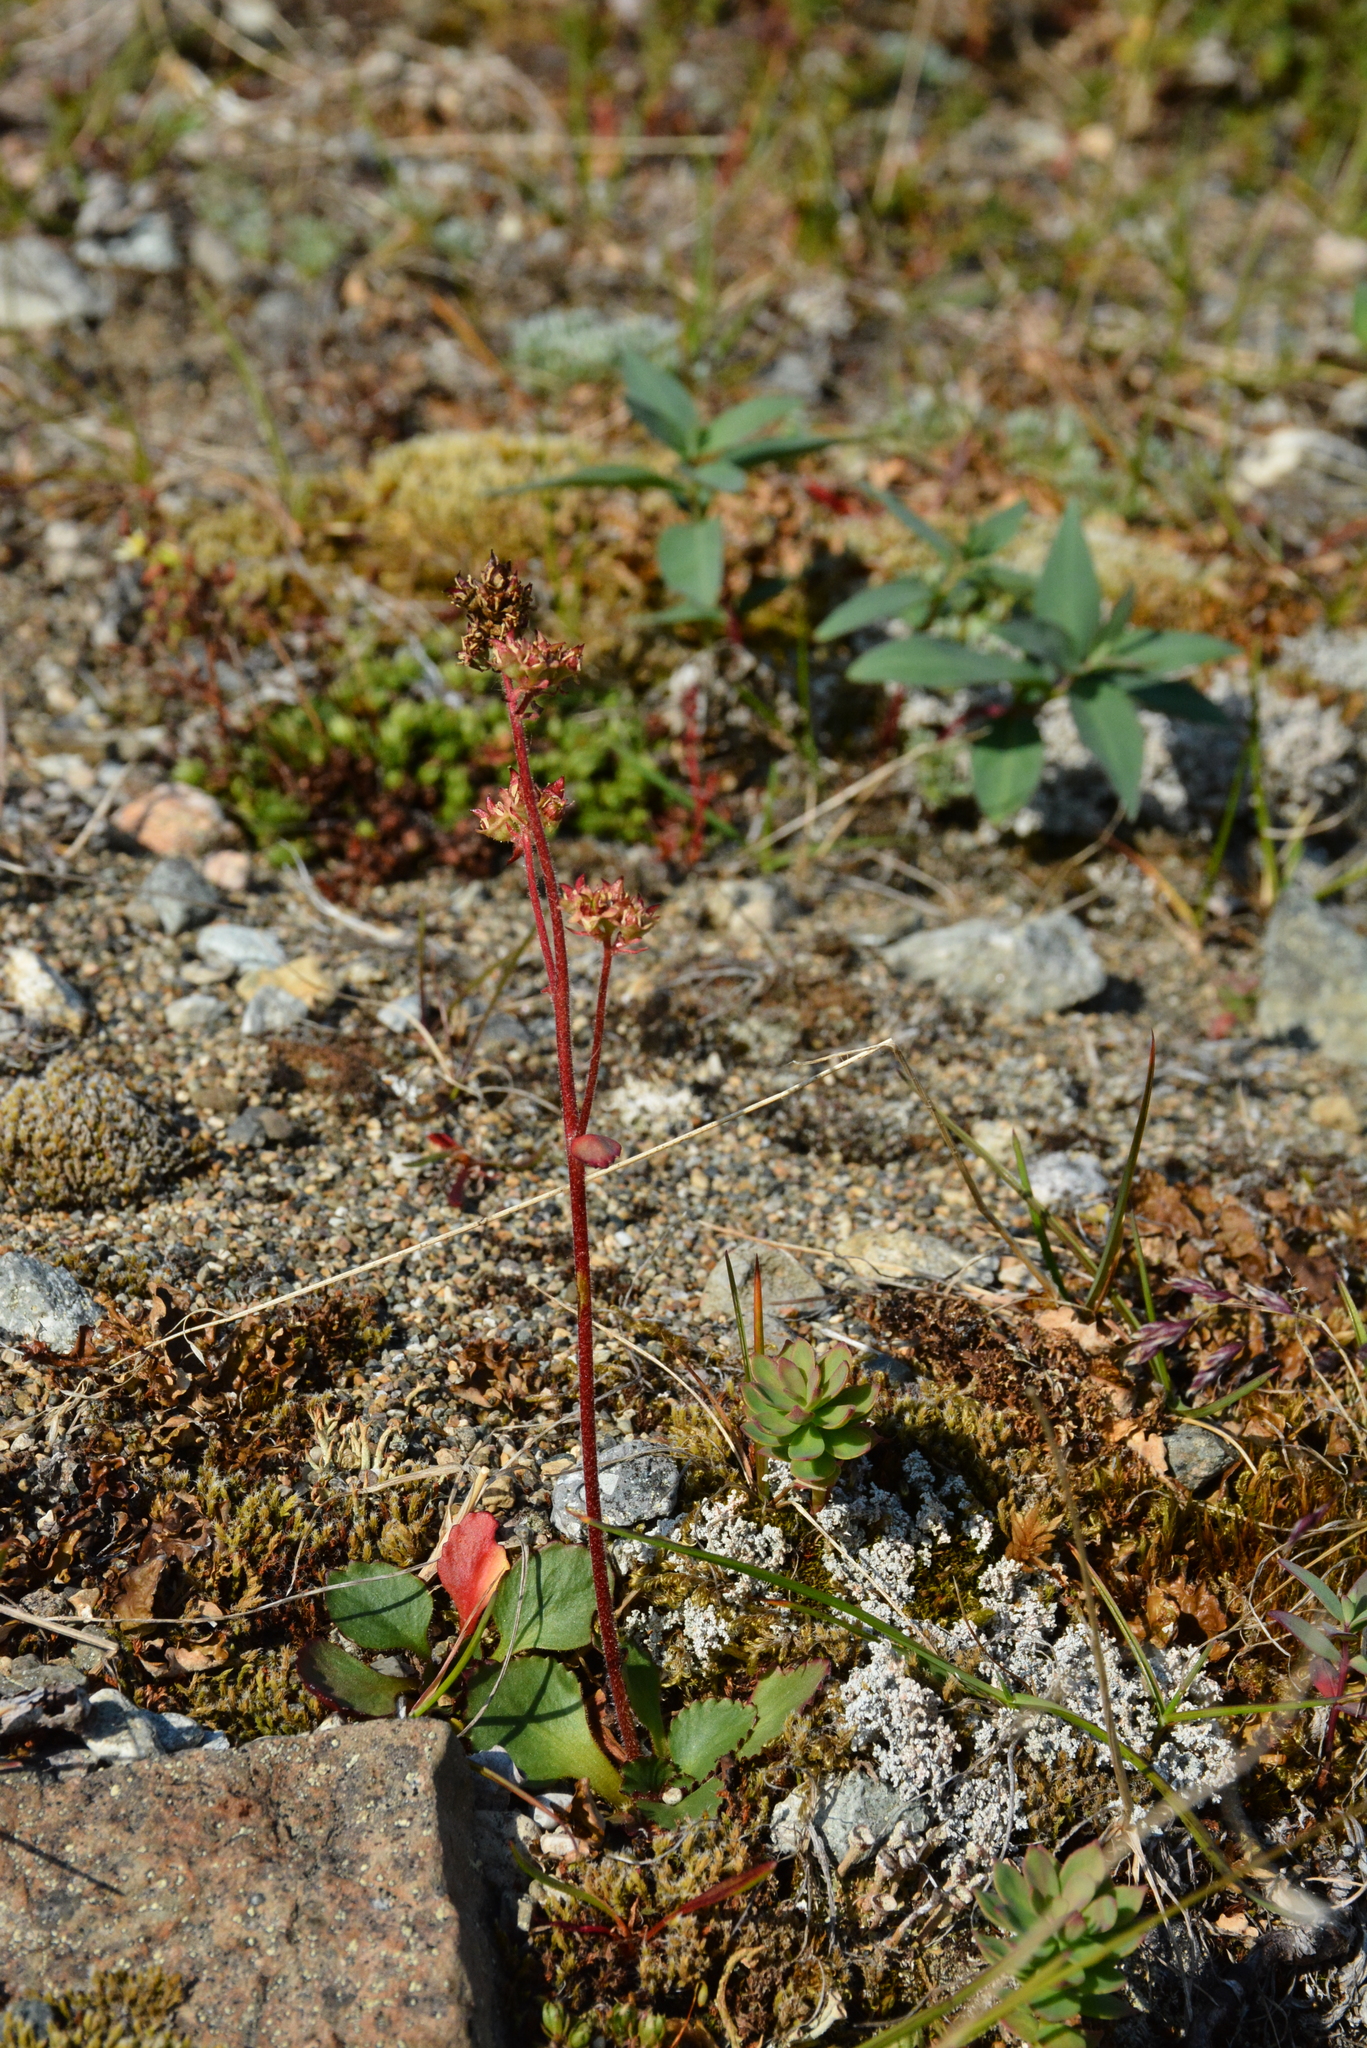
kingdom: Plantae
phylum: Tracheophyta
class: Magnoliopsida
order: Saxifragales
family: Saxifragaceae
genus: Micranthes
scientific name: Micranthes nivalis
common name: Alpine saxifrage
